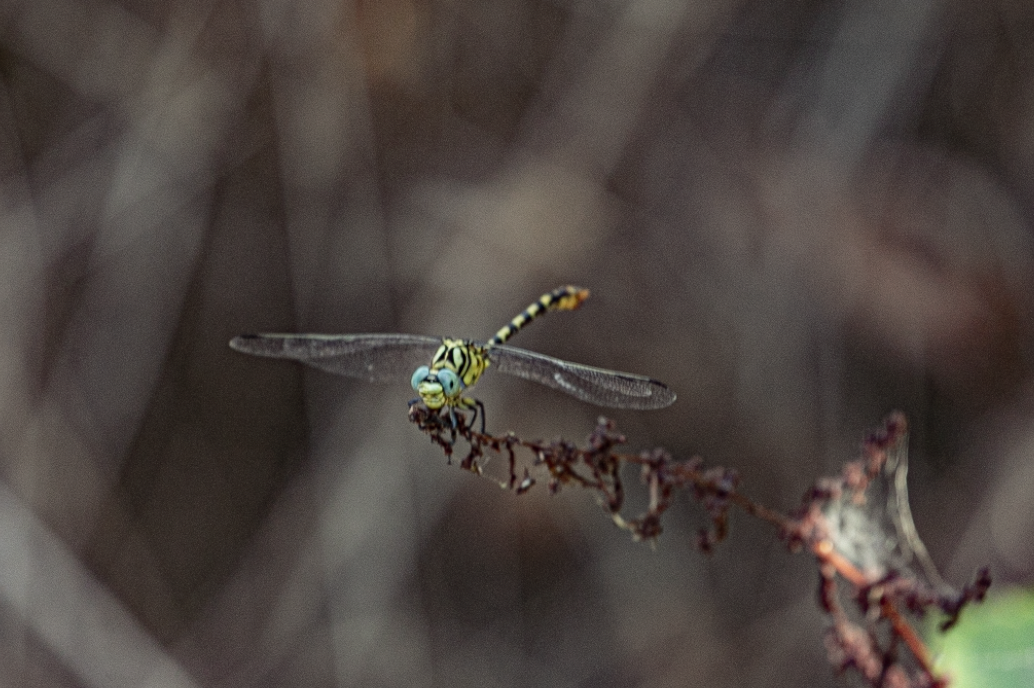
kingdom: Animalia
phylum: Arthropoda
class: Insecta
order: Odonata
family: Gomphidae
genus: Onychogomphus
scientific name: Onychogomphus forcipatus
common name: Small pincertail
